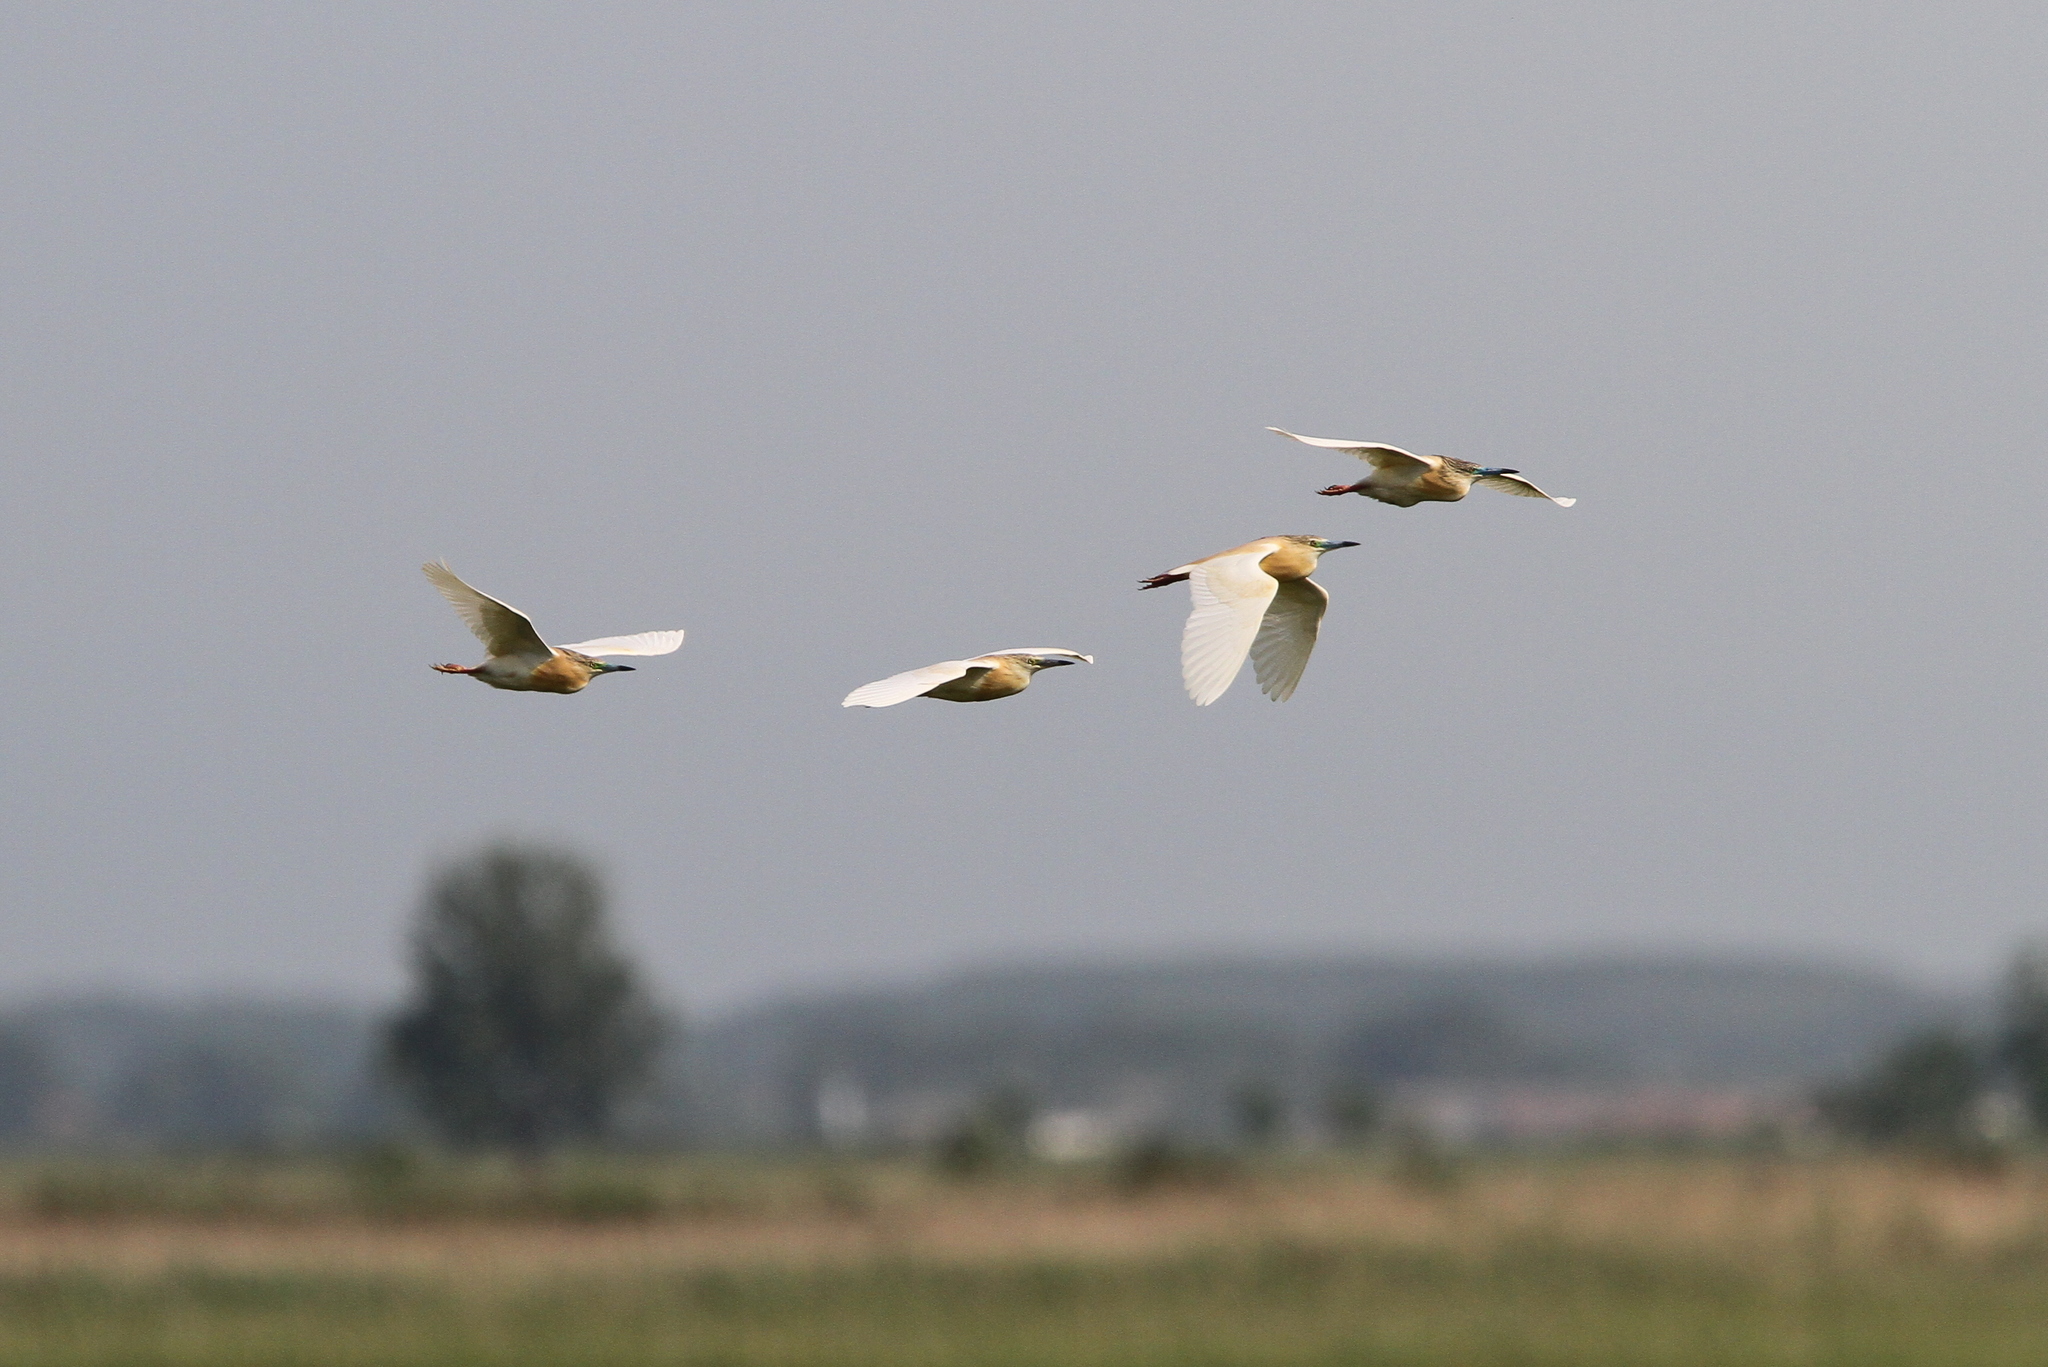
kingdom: Animalia
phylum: Chordata
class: Aves
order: Pelecaniformes
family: Ardeidae
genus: Ardeola
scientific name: Ardeola ralloides
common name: Squacco heron
